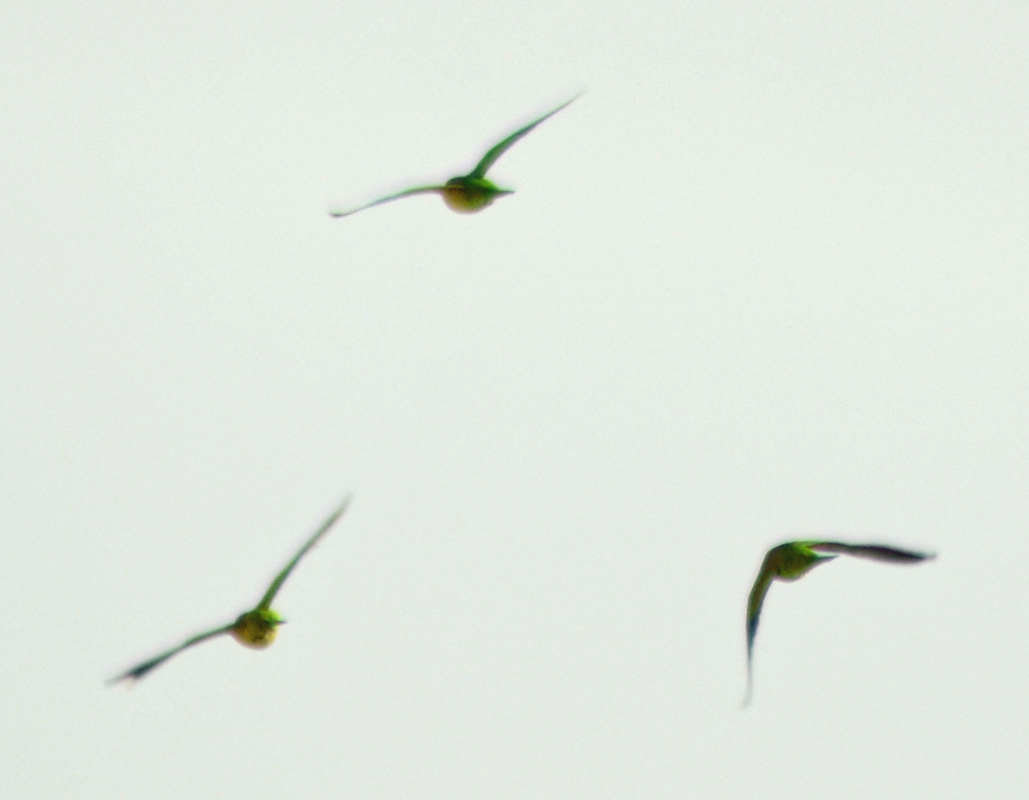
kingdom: Animalia
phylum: Chordata
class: Aves
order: Psittaciformes
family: Psittacidae
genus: Myiopsitta
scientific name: Myiopsitta monachus
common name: Monk parakeet
